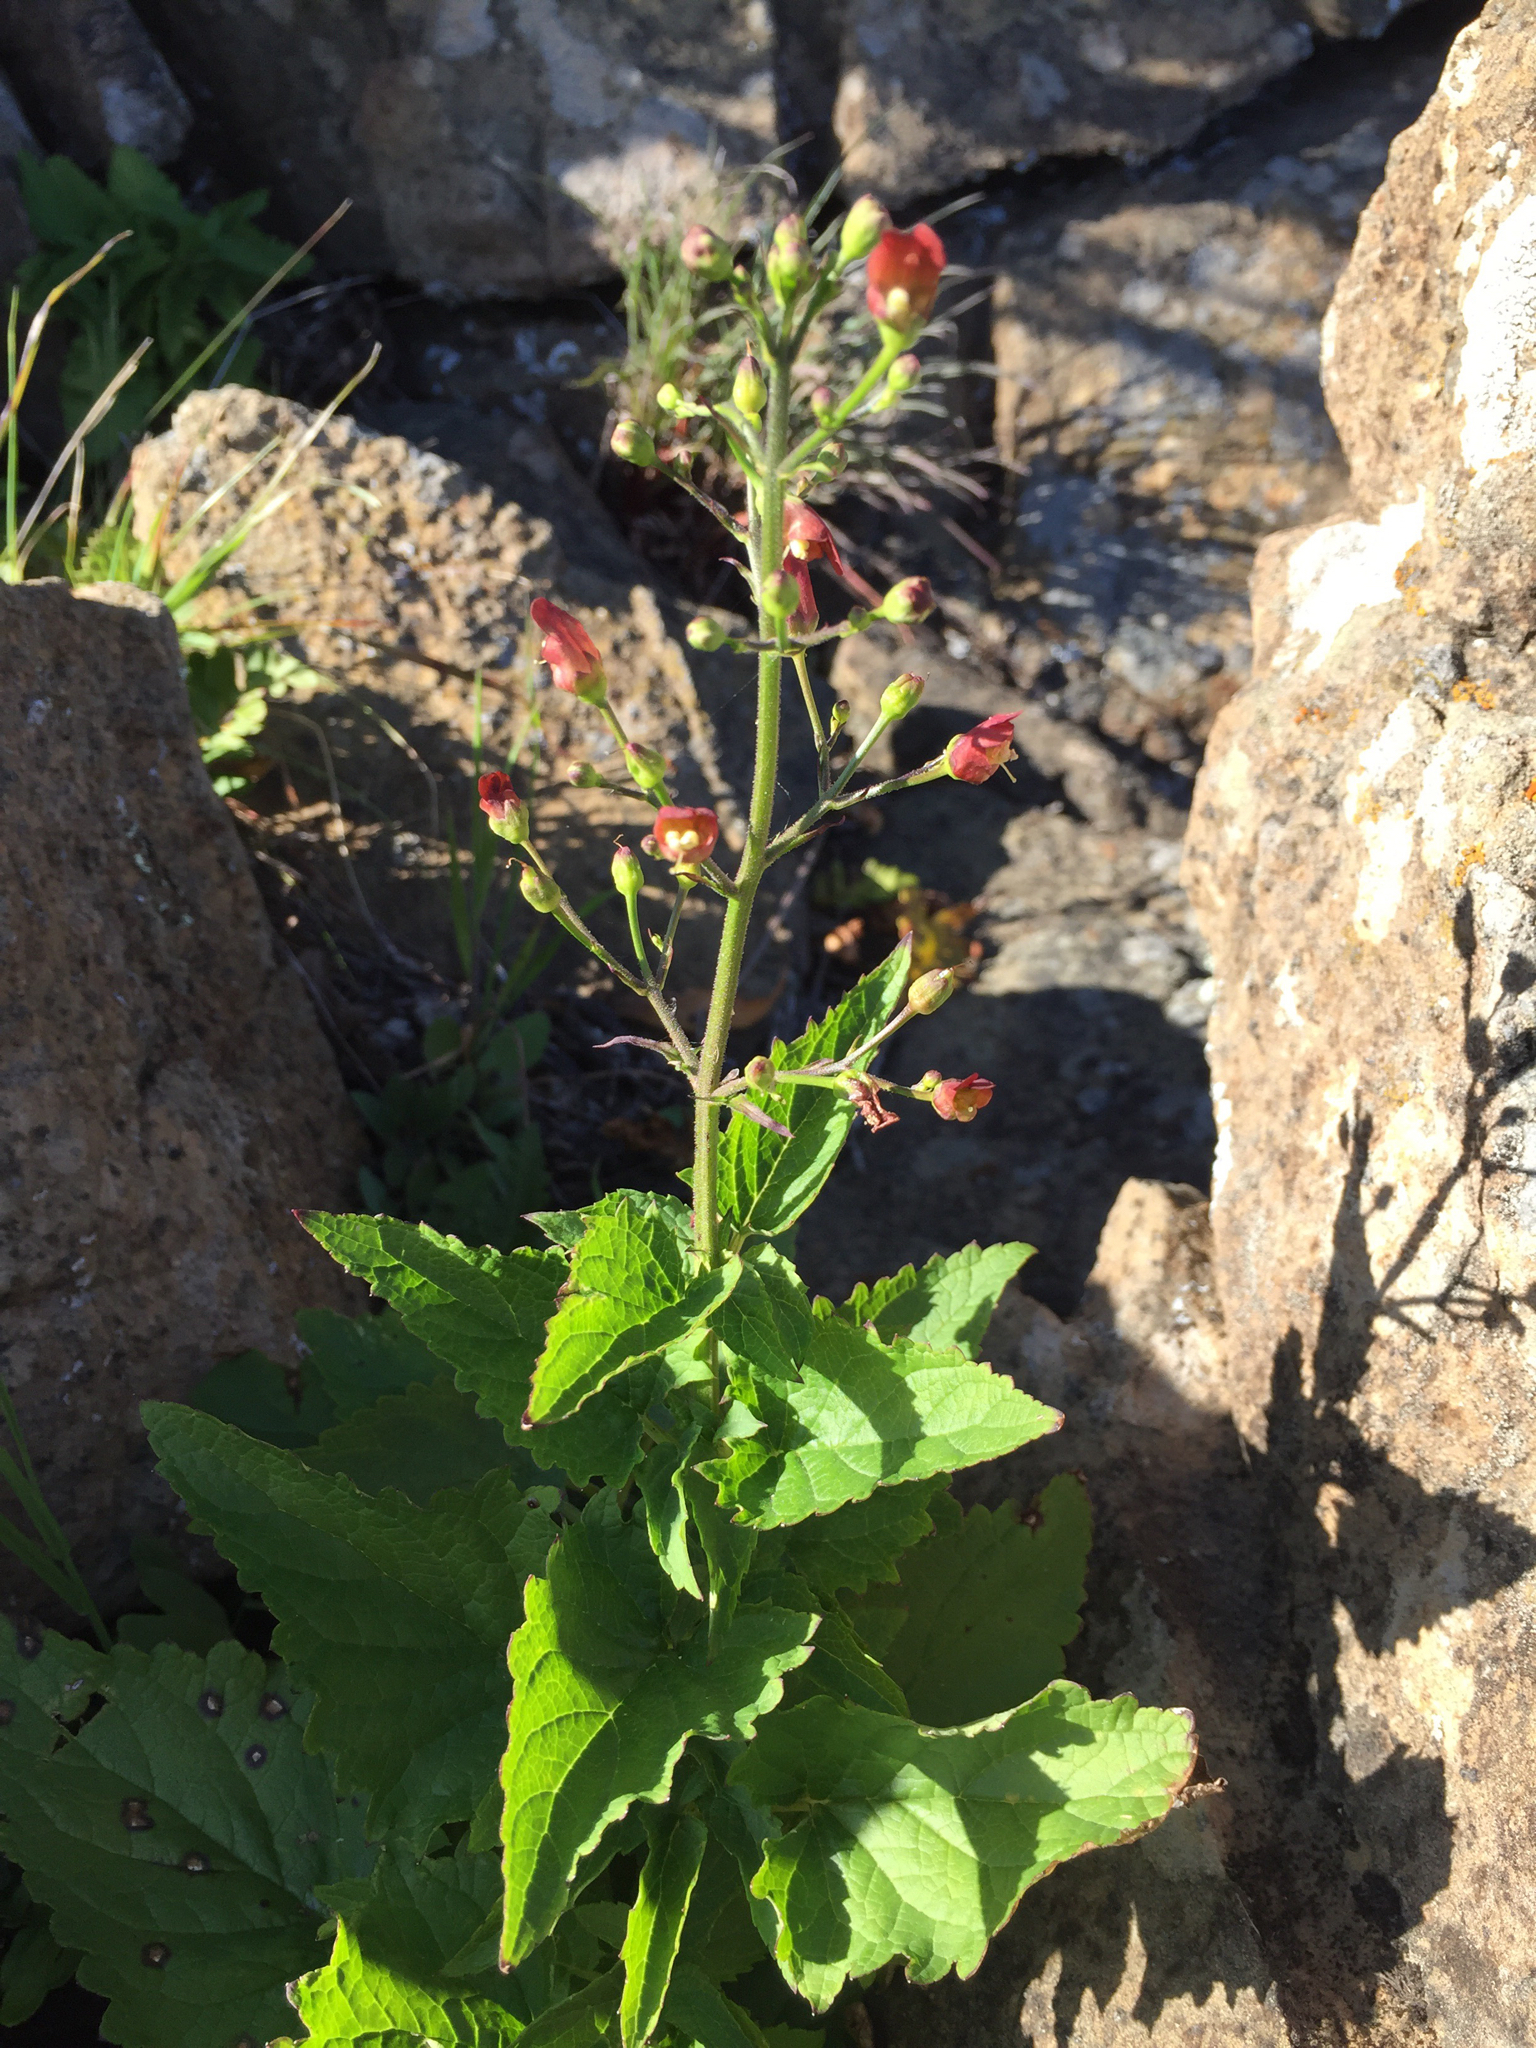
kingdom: Plantae
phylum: Tracheophyta
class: Magnoliopsida
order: Lamiales
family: Scrophulariaceae
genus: Scrophularia
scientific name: Scrophularia californica
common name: California figwort
